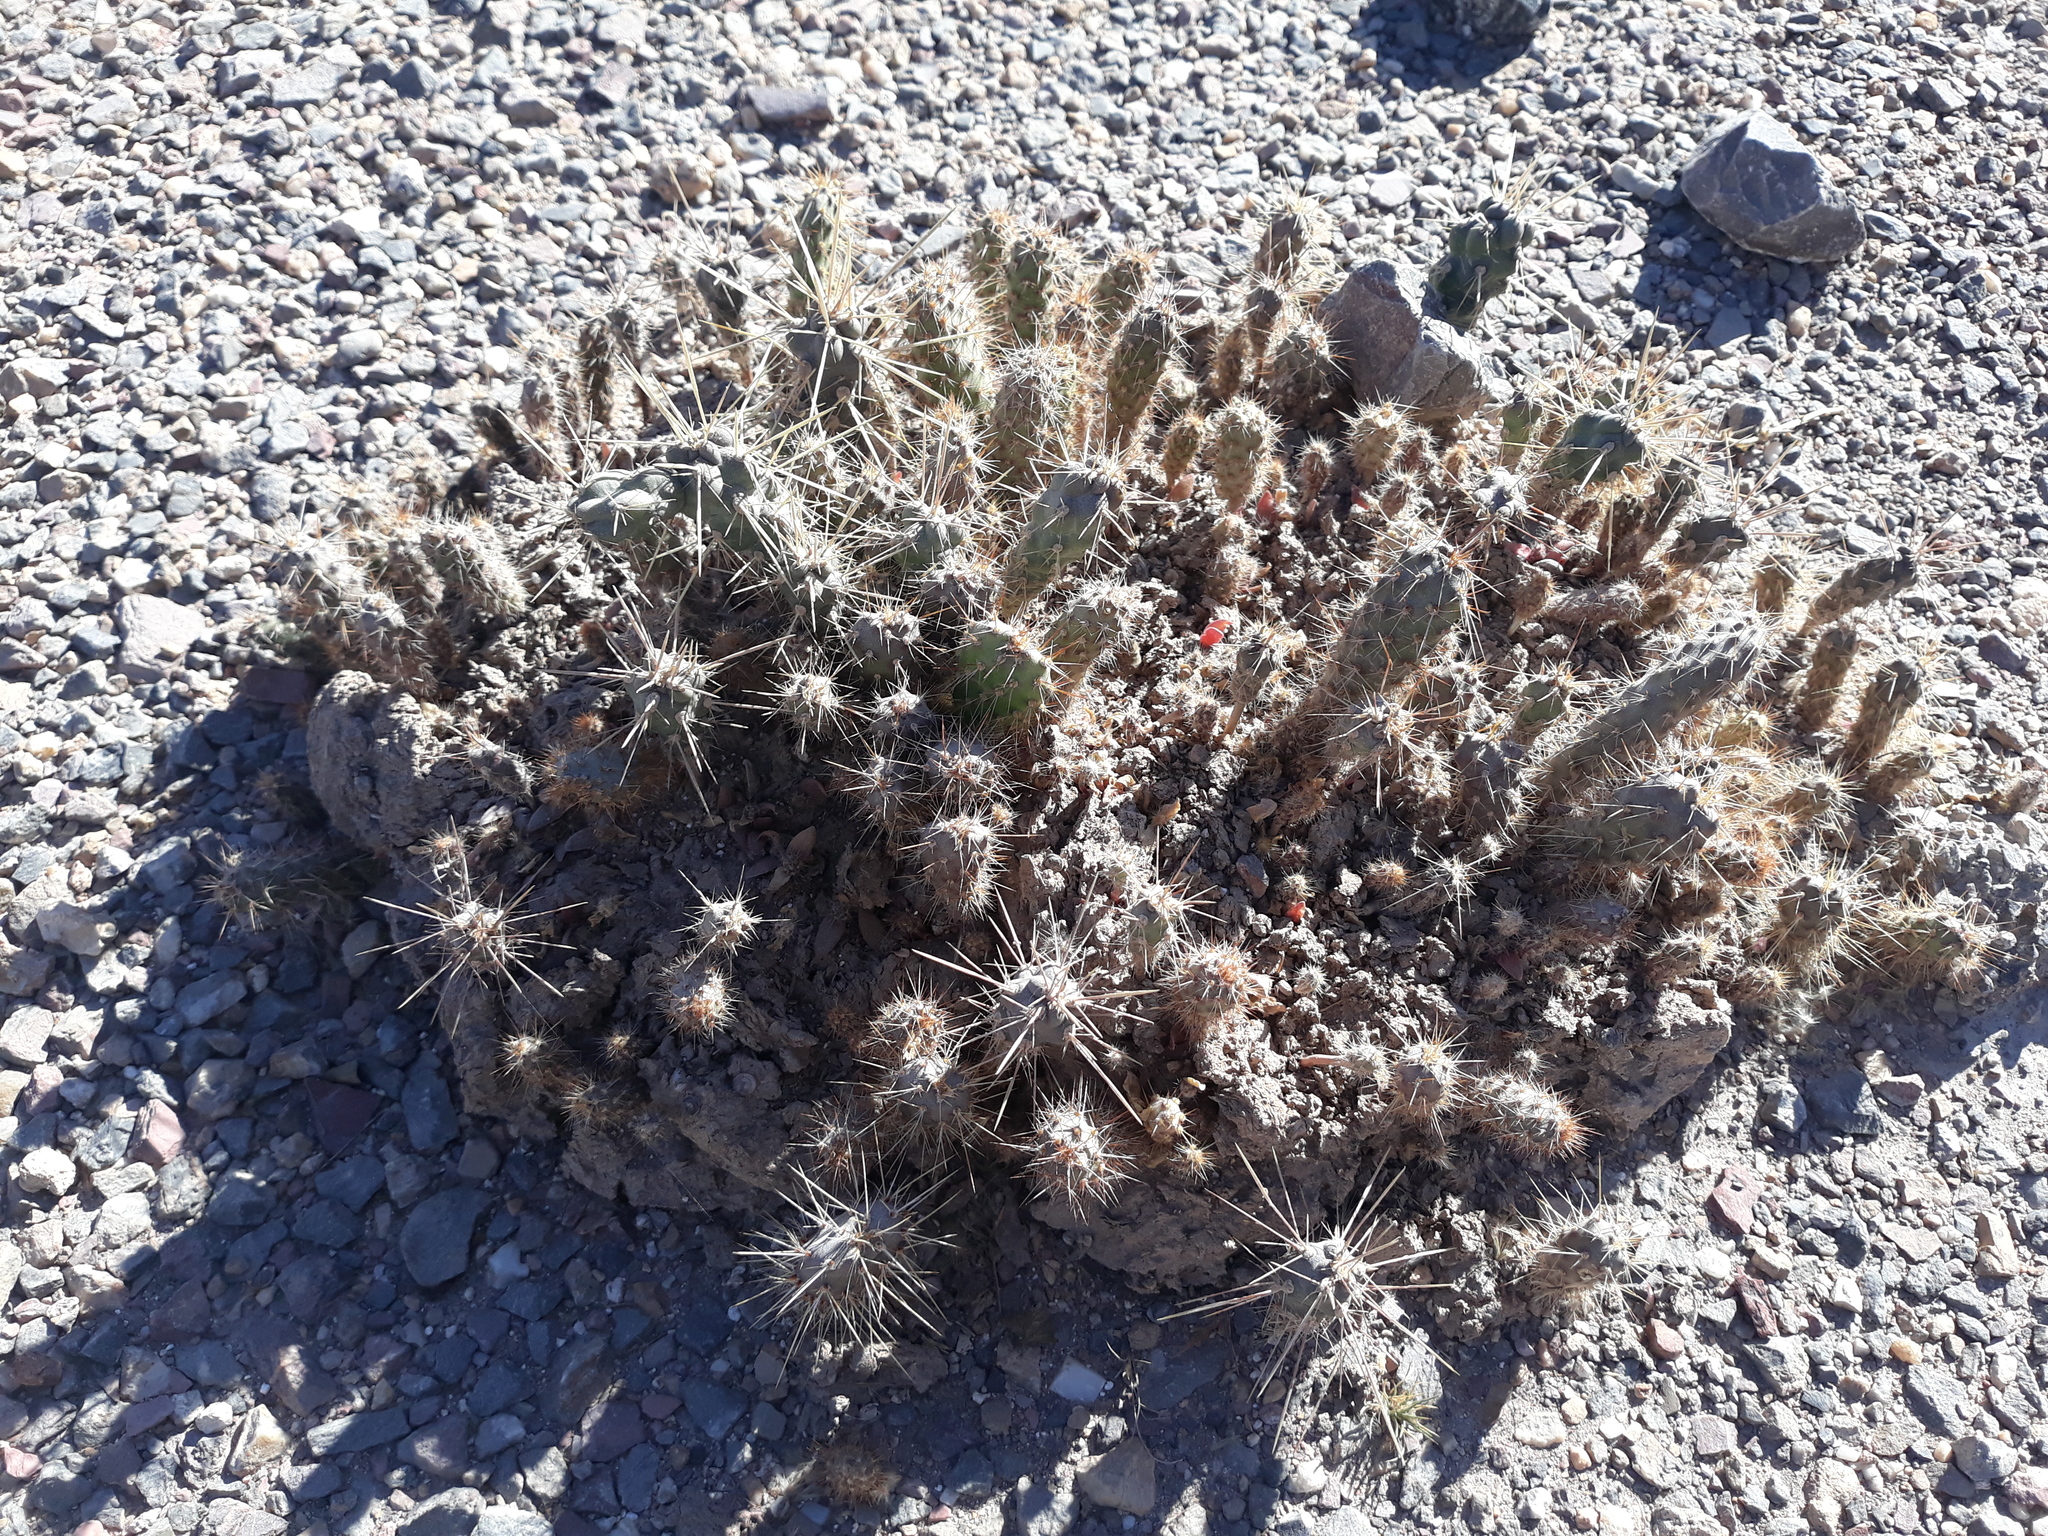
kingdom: Plantae
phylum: Tracheophyta
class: Magnoliopsida
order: Caryophyllales
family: Cactaceae
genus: Cylindropuntia
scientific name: Cylindropuntia imbricata
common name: Candelabrum cactus
